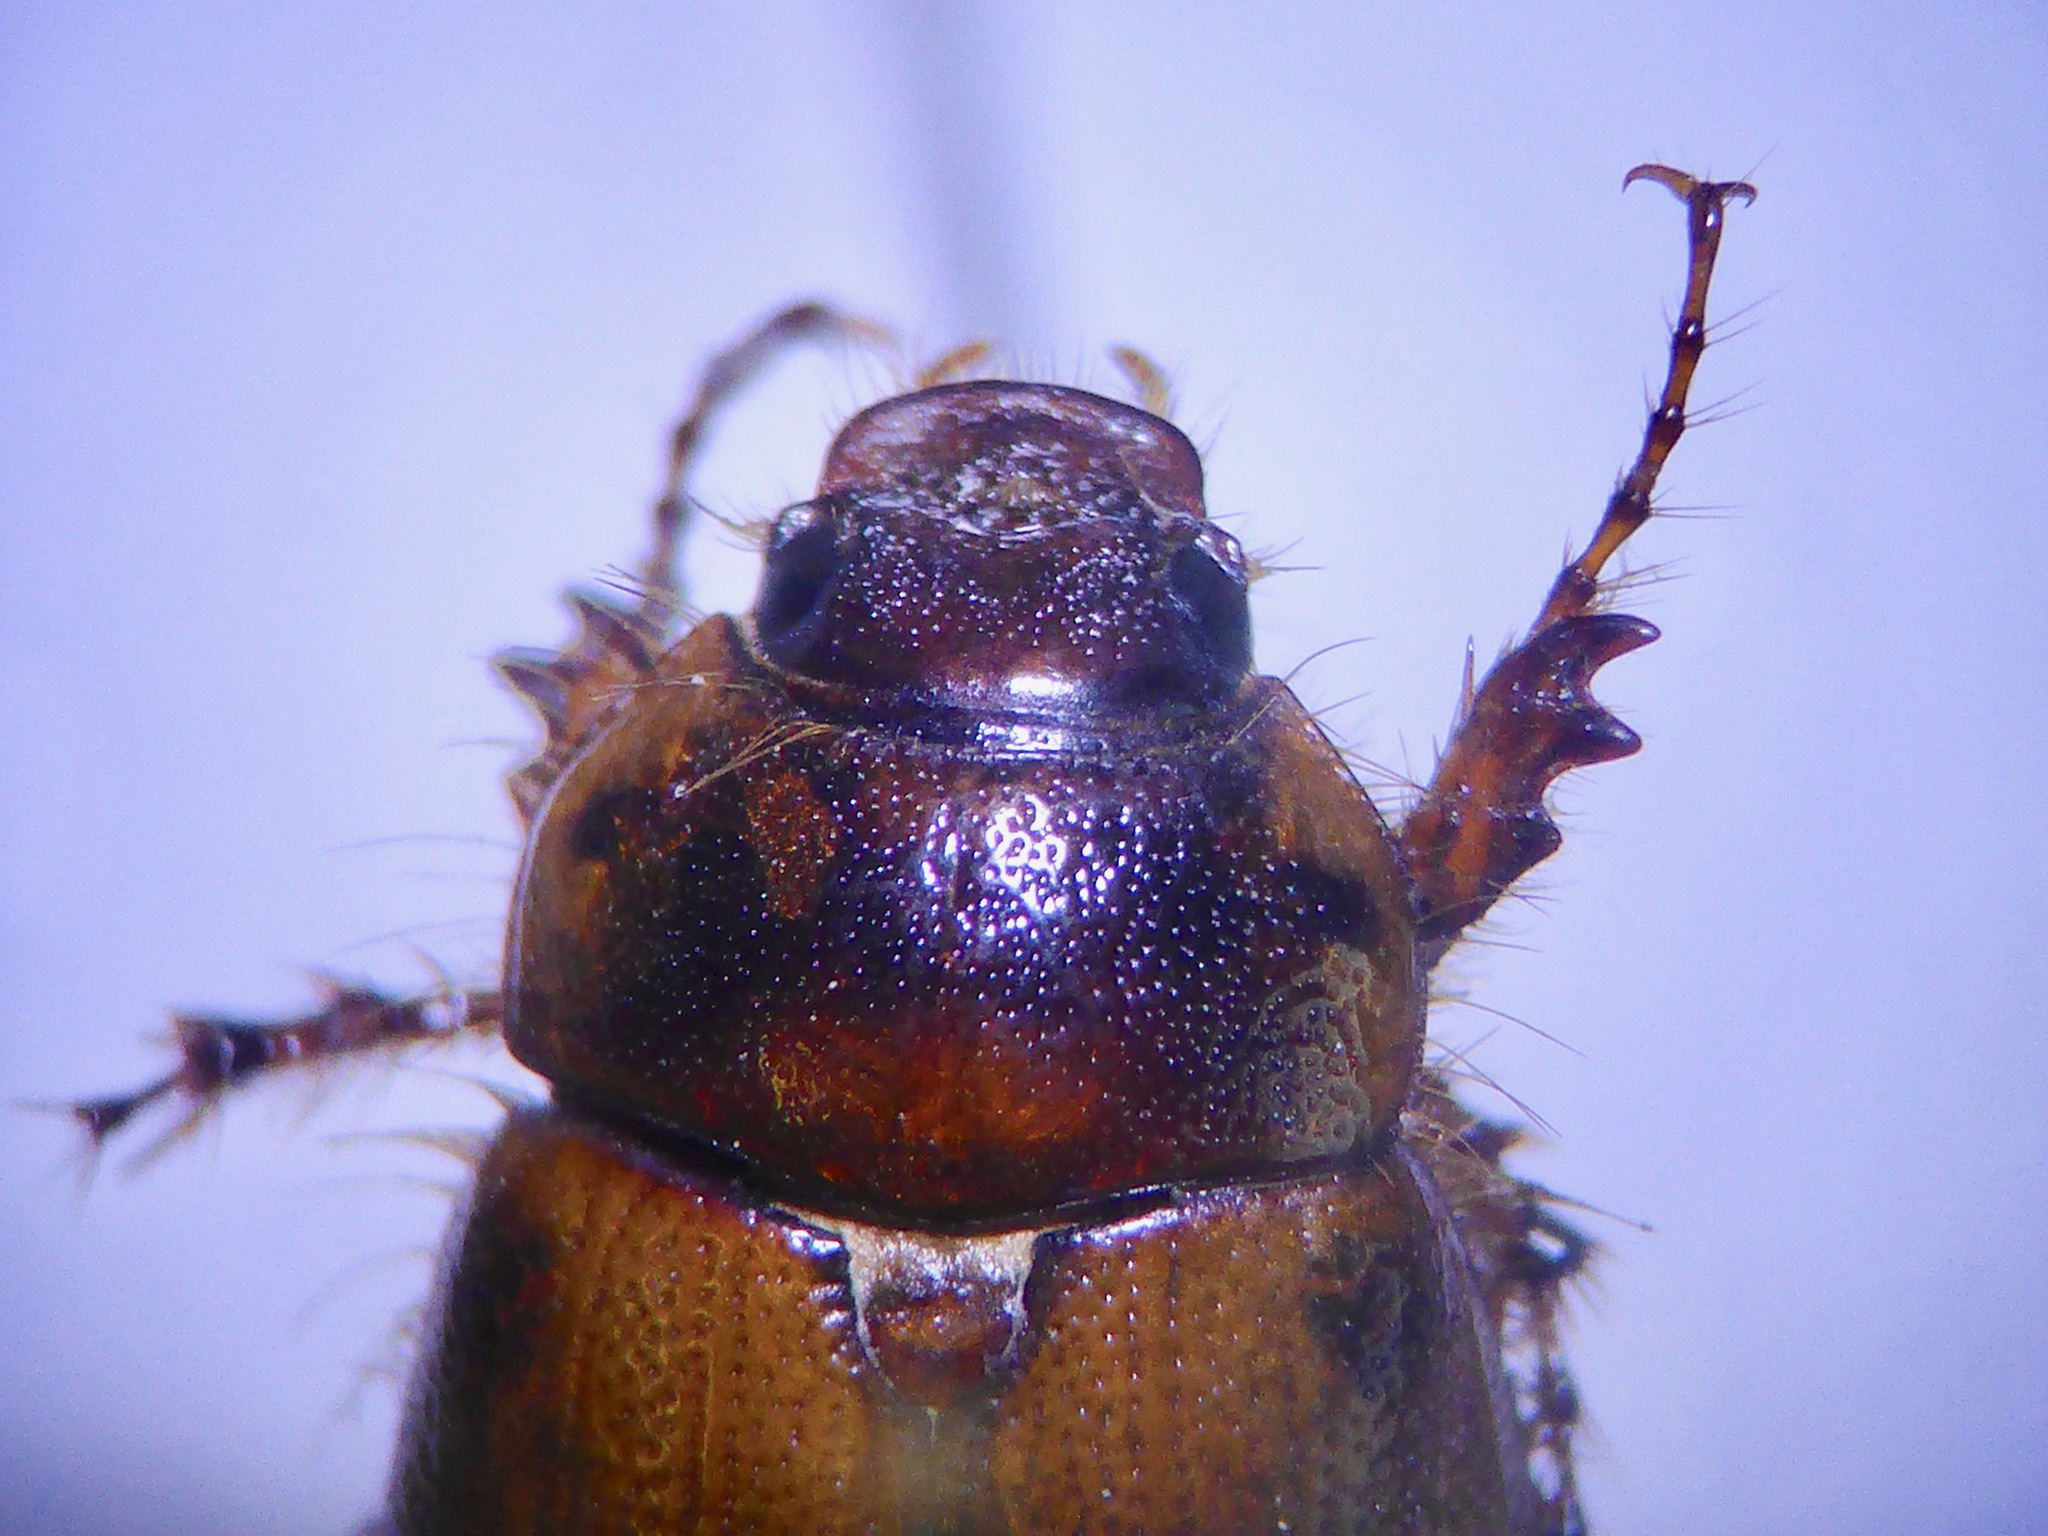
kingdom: Animalia
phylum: Arthropoda
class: Insecta
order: Coleoptera
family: Scarabaeidae
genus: Costelytra
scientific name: Costelytra zealandica
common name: New zealand grass grub
